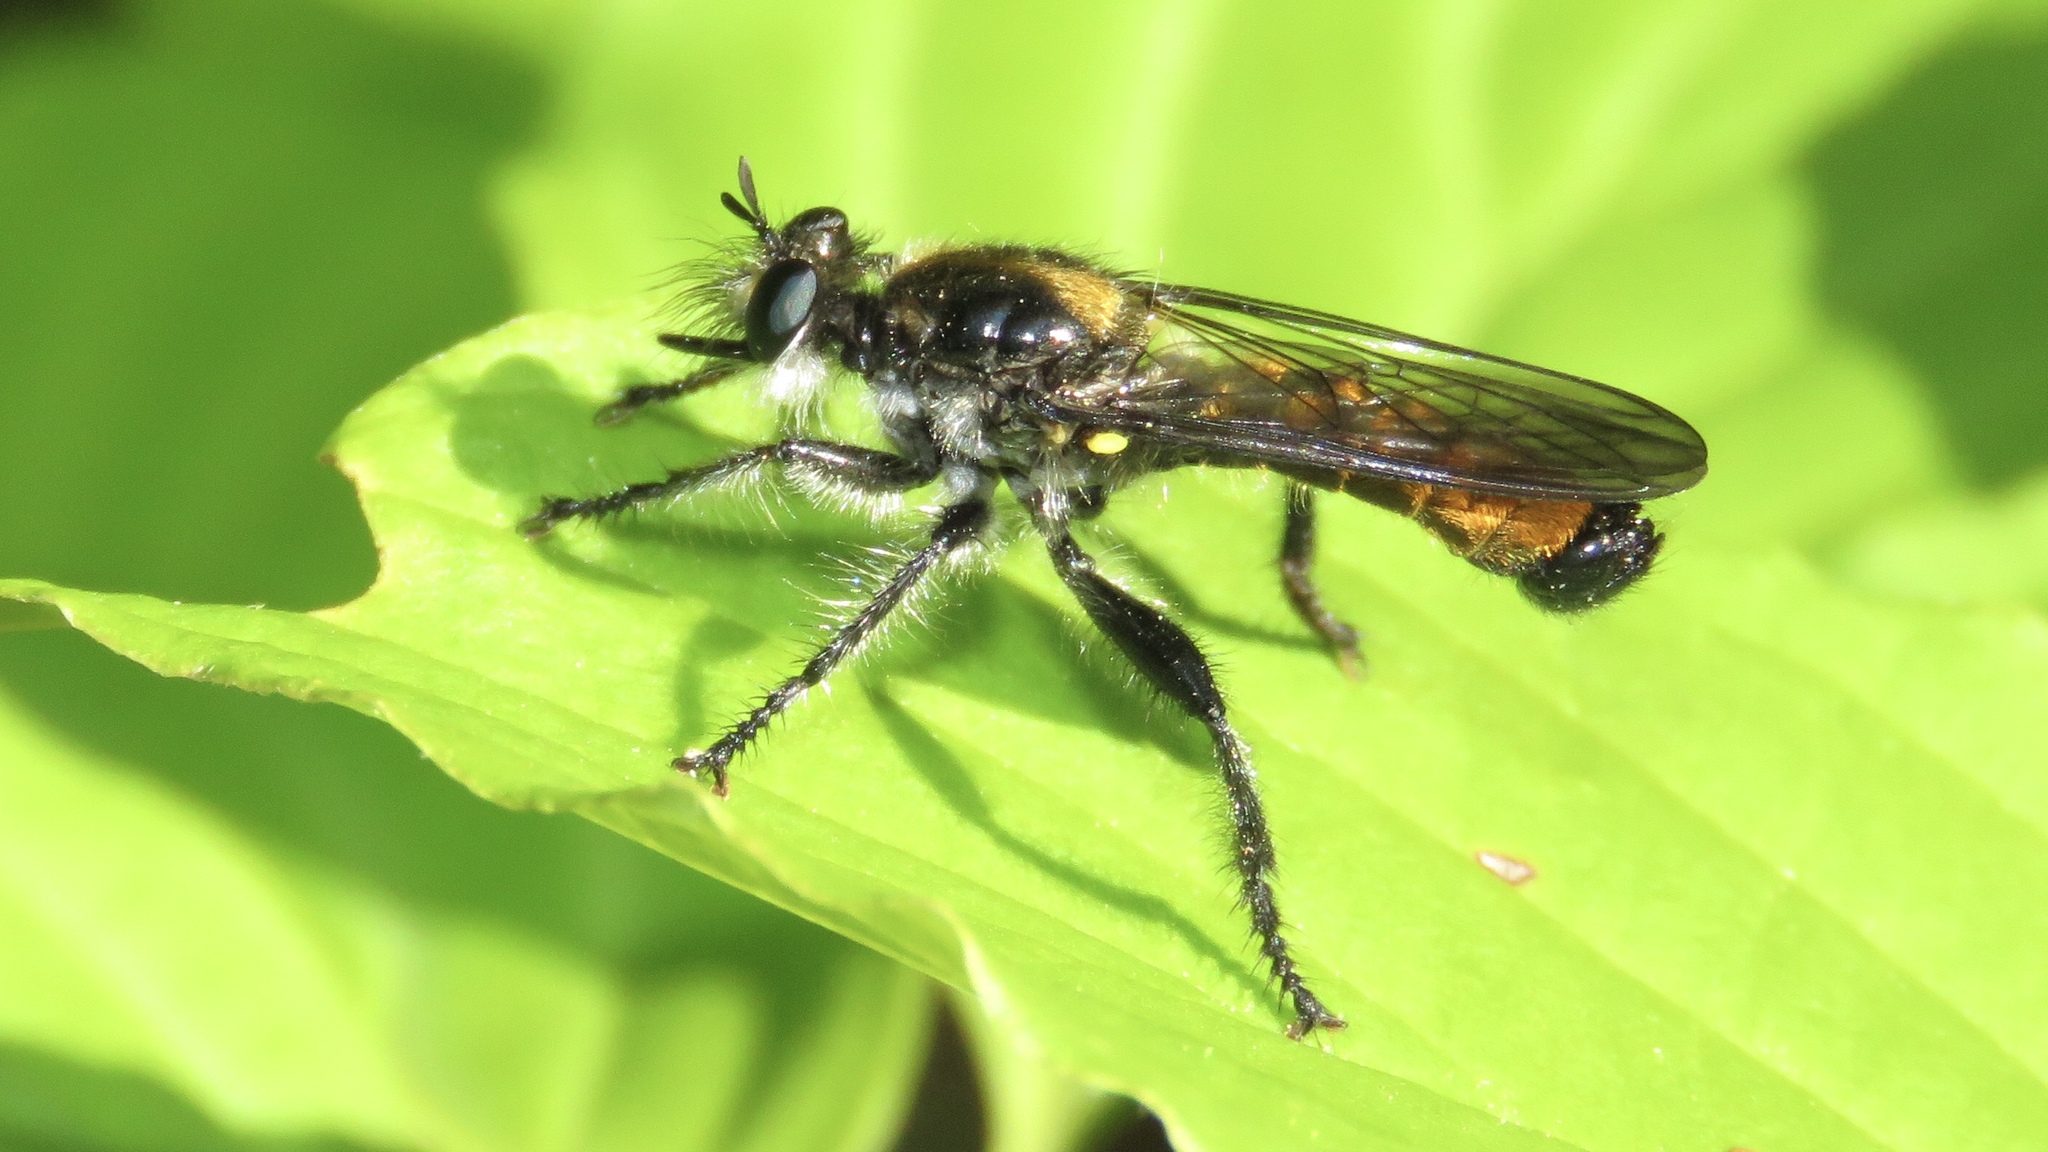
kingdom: Animalia
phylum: Arthropoda
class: Insecta
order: Diptera
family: Asilidae
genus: Laphria
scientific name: Laphria index
